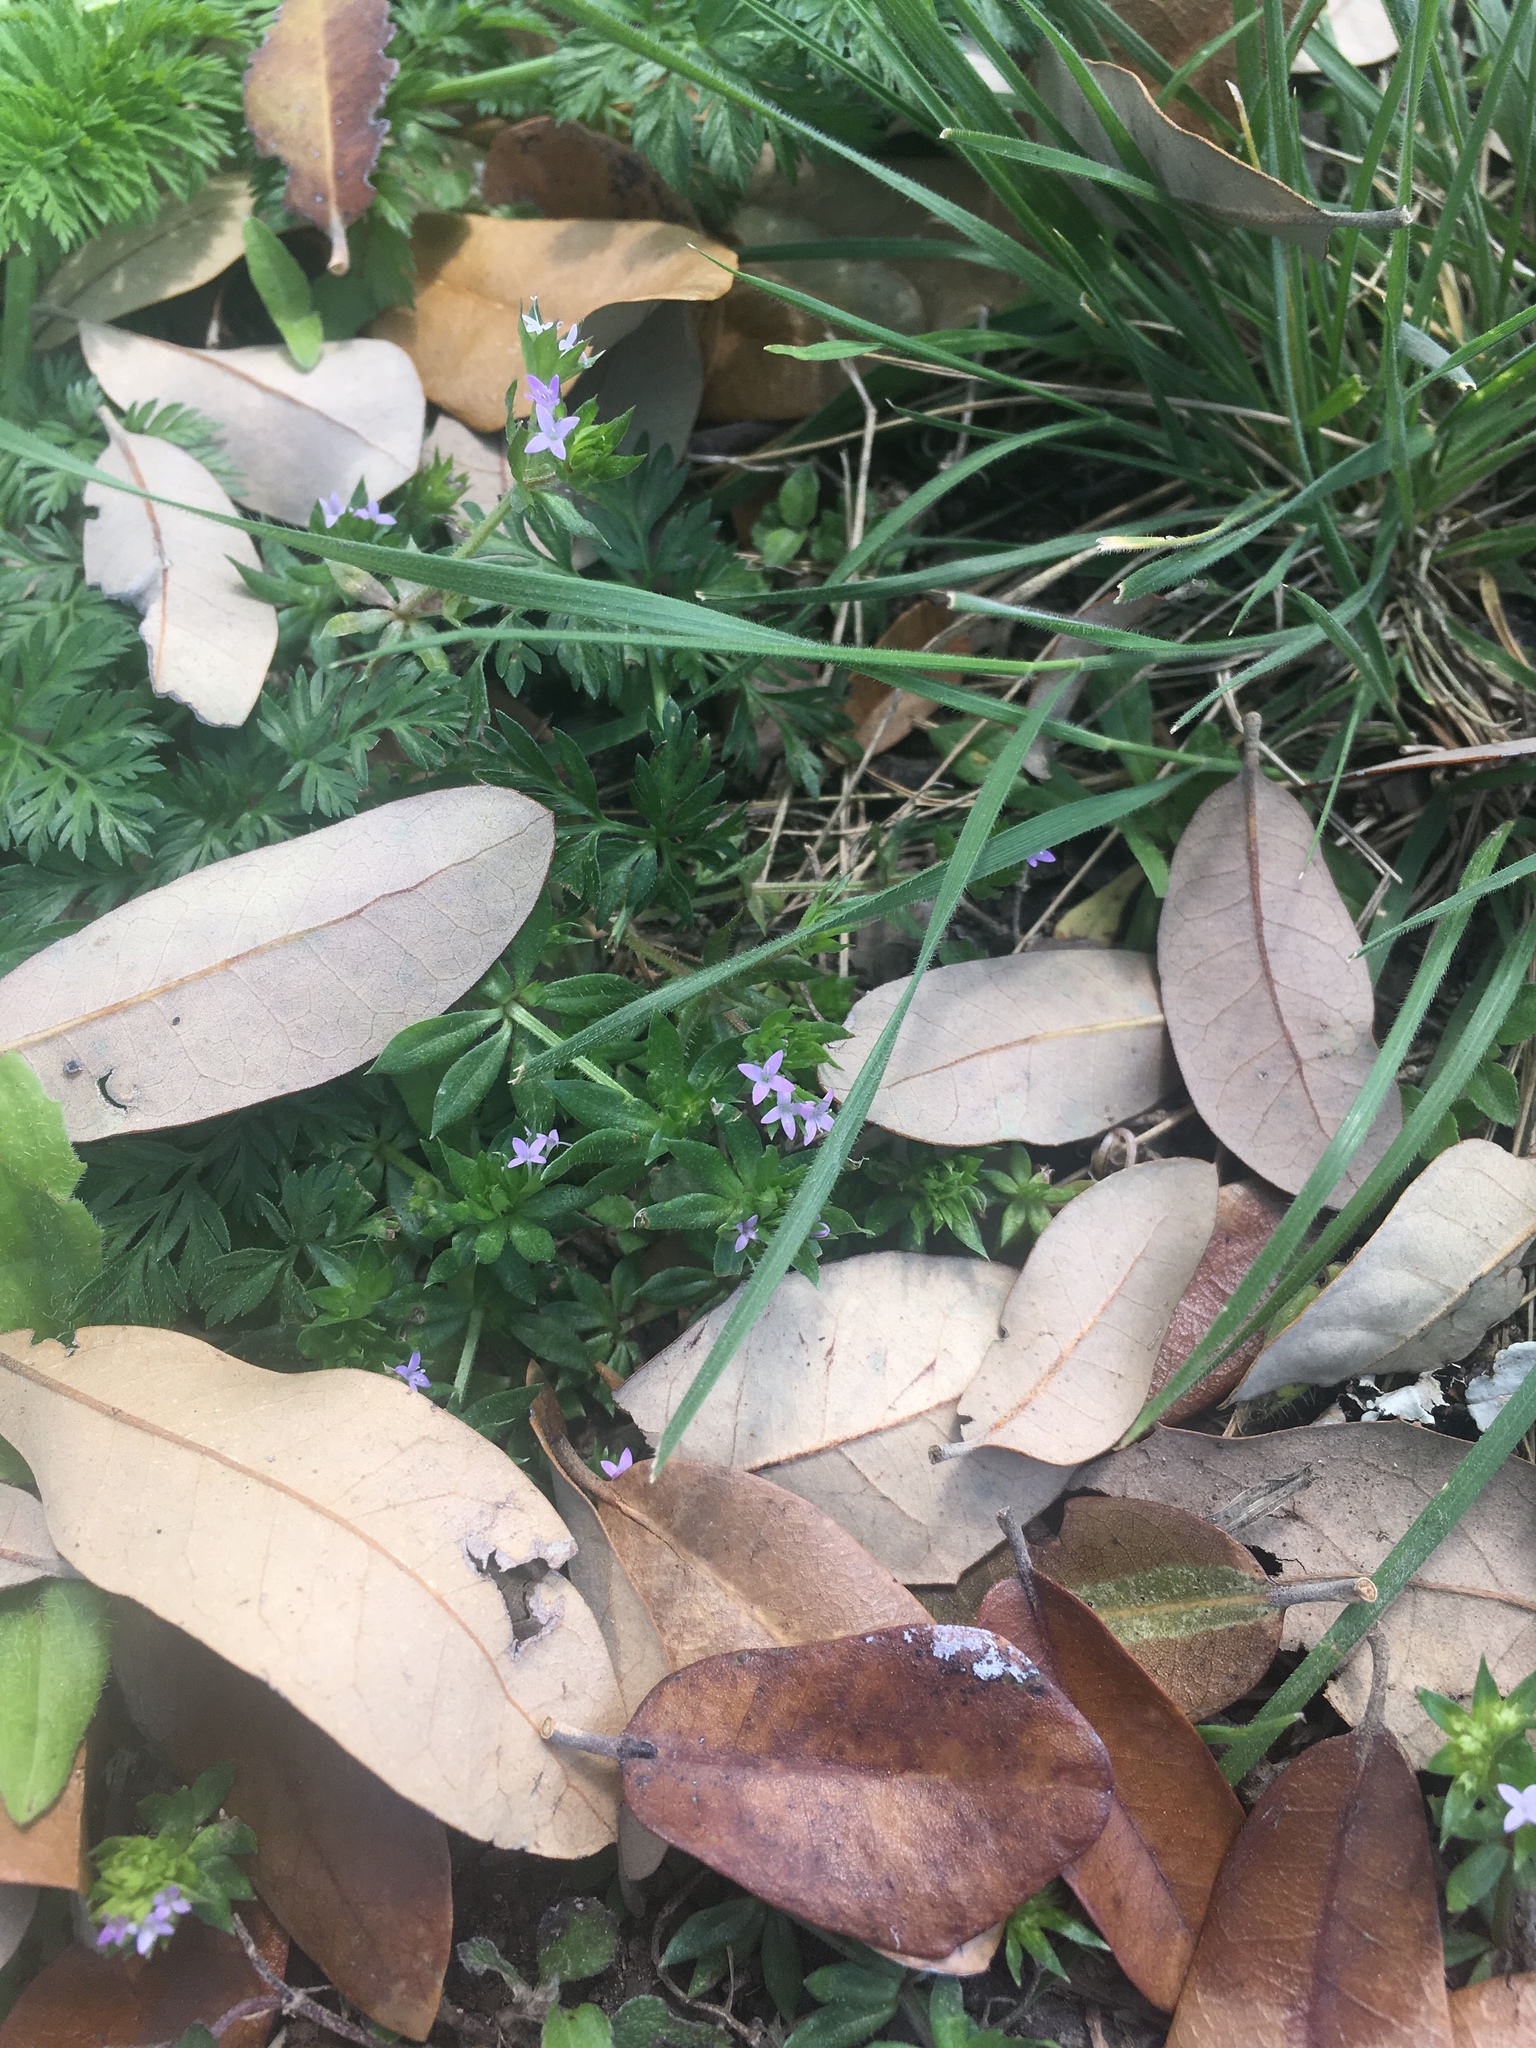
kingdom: Plantae
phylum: Tracheophyta
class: Magnoliopsida
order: Gentianales
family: Rubiaceae
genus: Sherardia
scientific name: Sherardia arvensis
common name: Field madder
